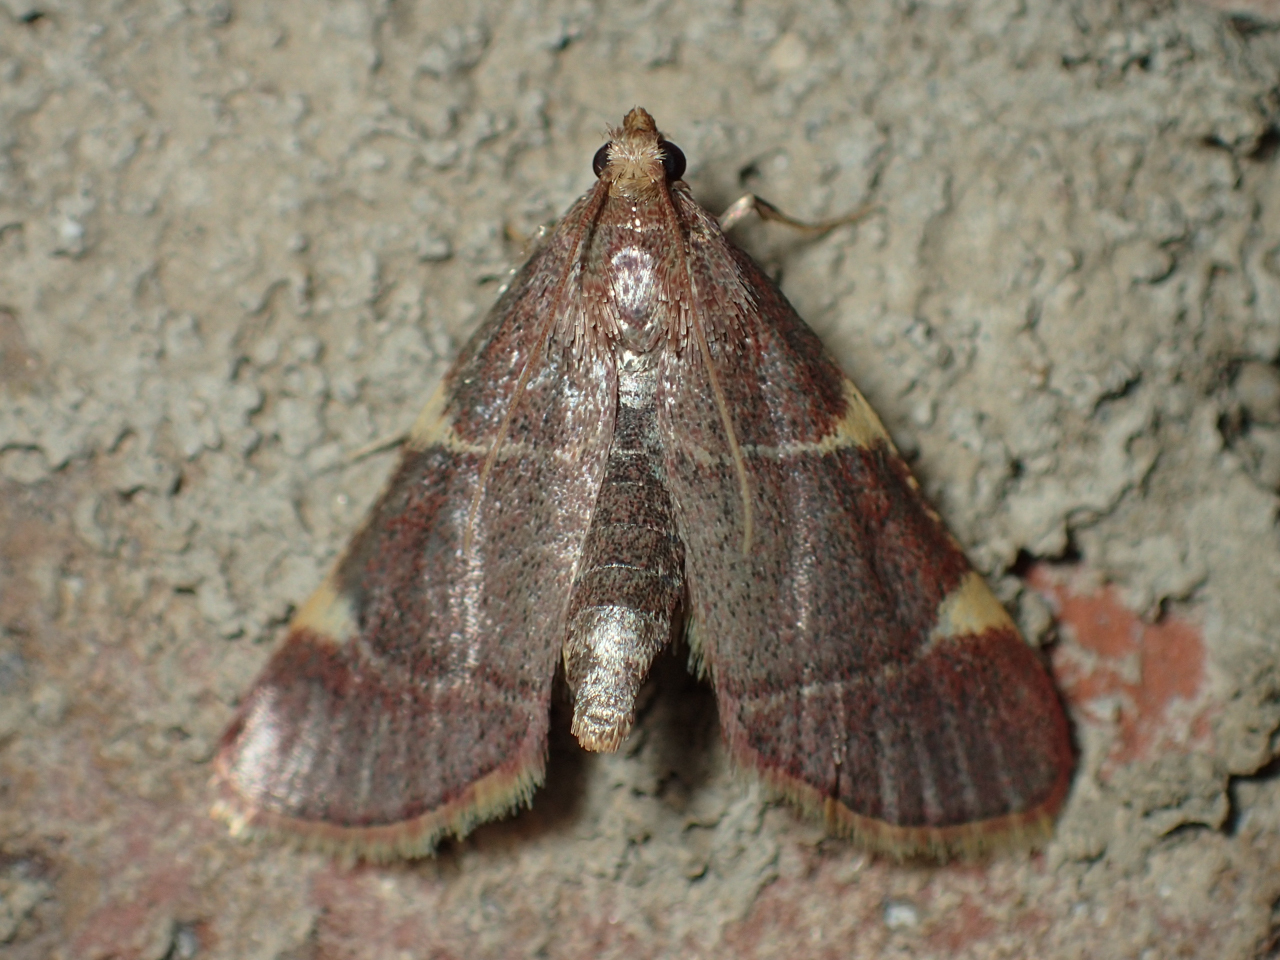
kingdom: Animalia
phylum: Arthropoda
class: Insecta
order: Lepidoptera
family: Pyralidae
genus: Hypsopygia
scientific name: Hypsopygia olinalis
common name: Yellow-fringed dolichomia moth
